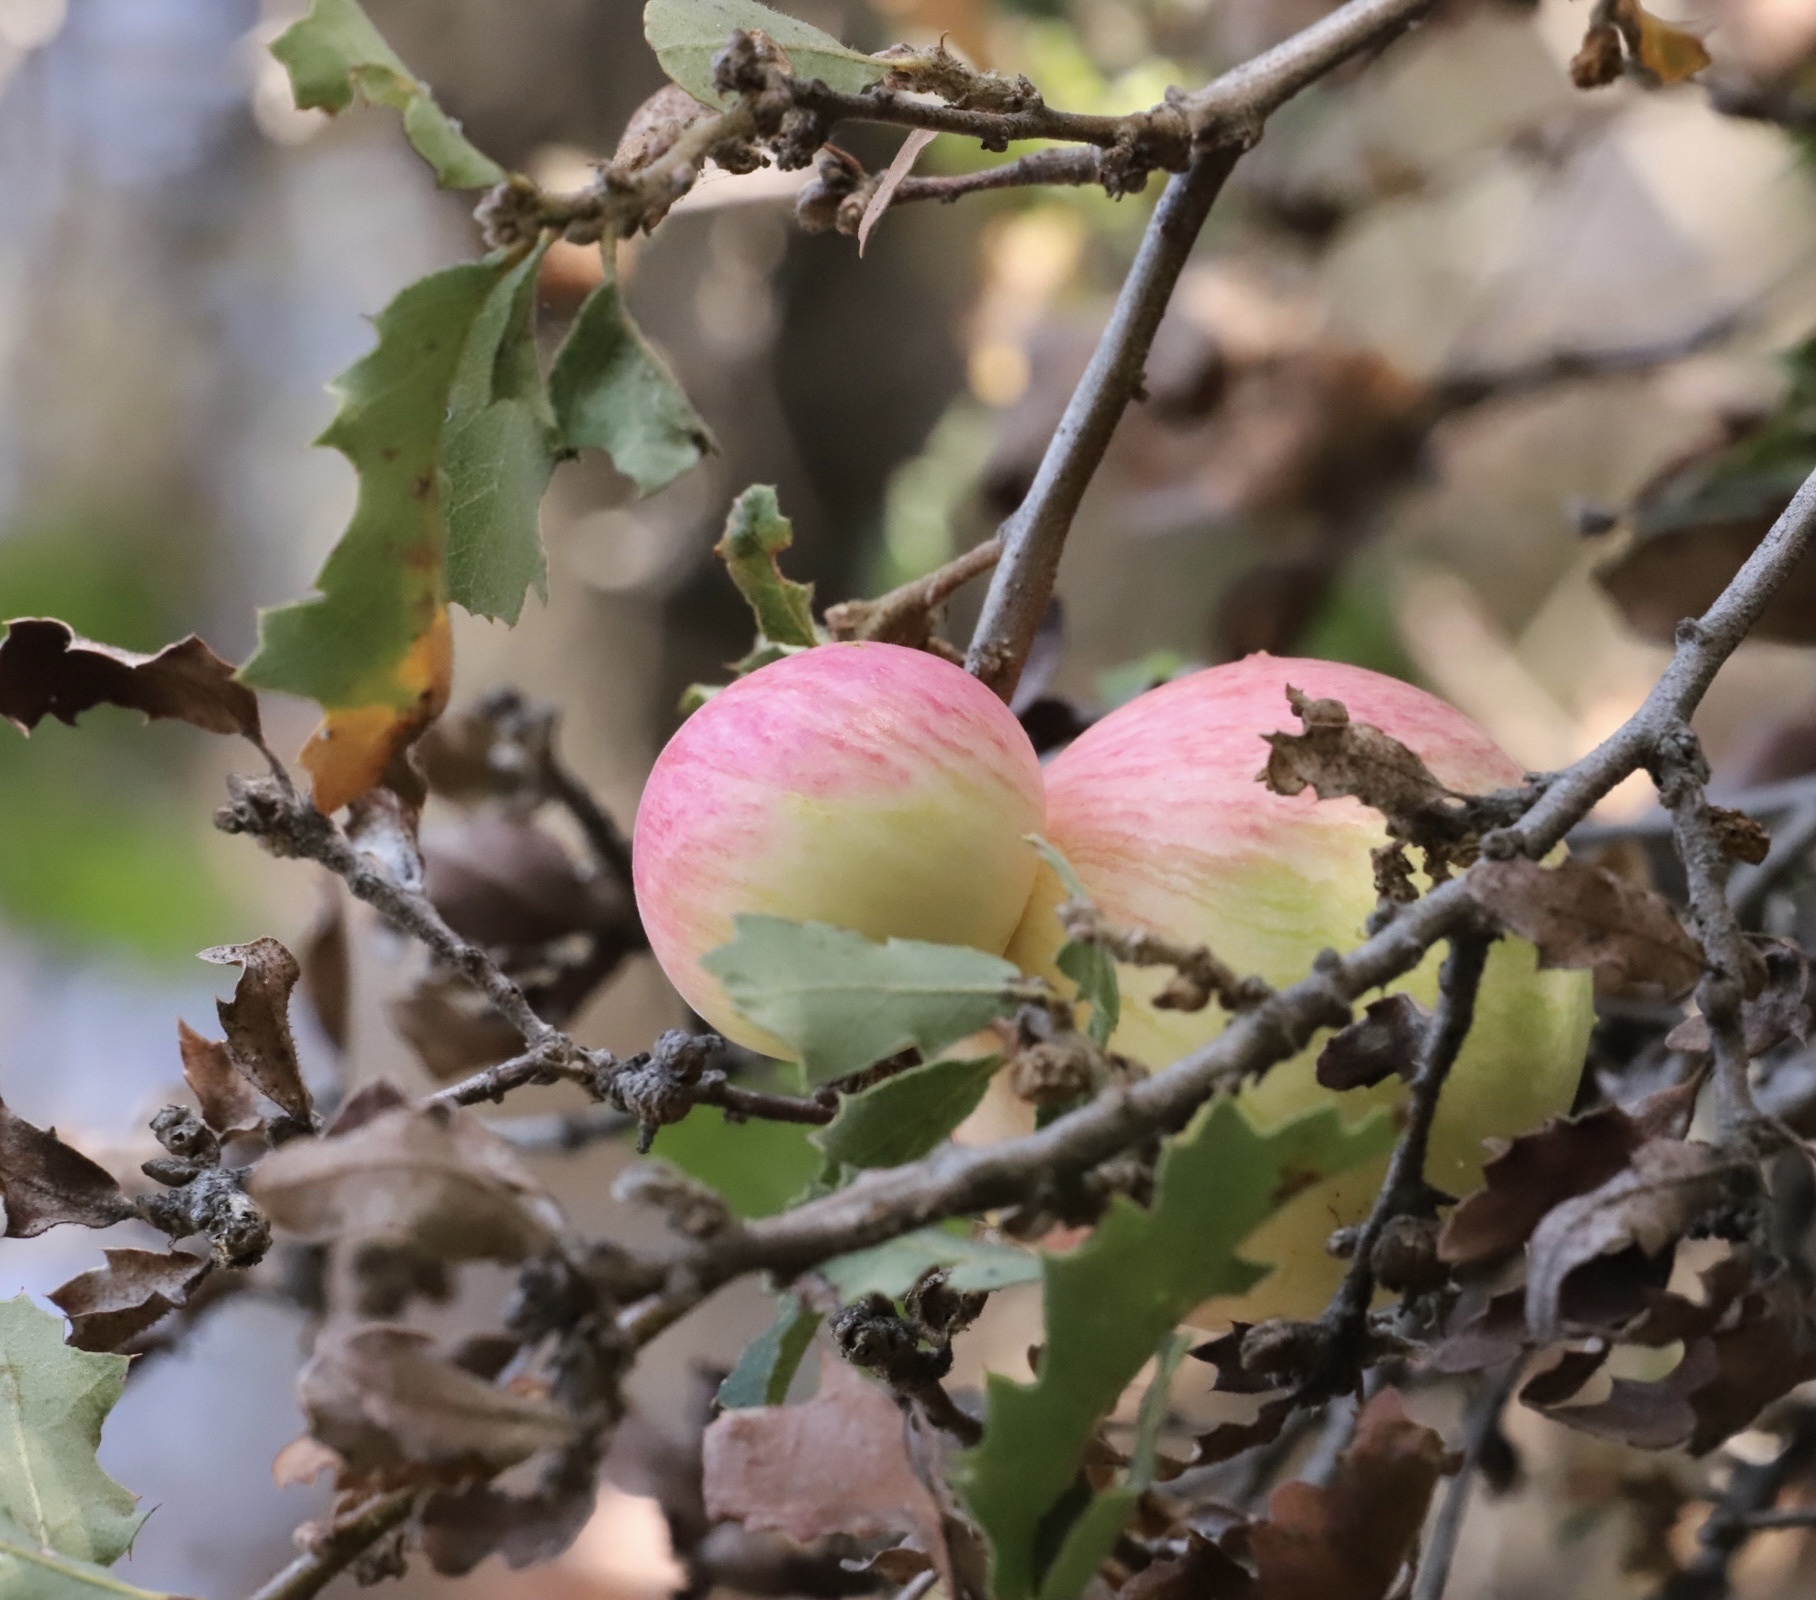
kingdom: Animalia
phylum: Arthropoda
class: Insecta
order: Hymenoptera
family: Cynipidae
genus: Andricus
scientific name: Andricus quercuscalifornicus
